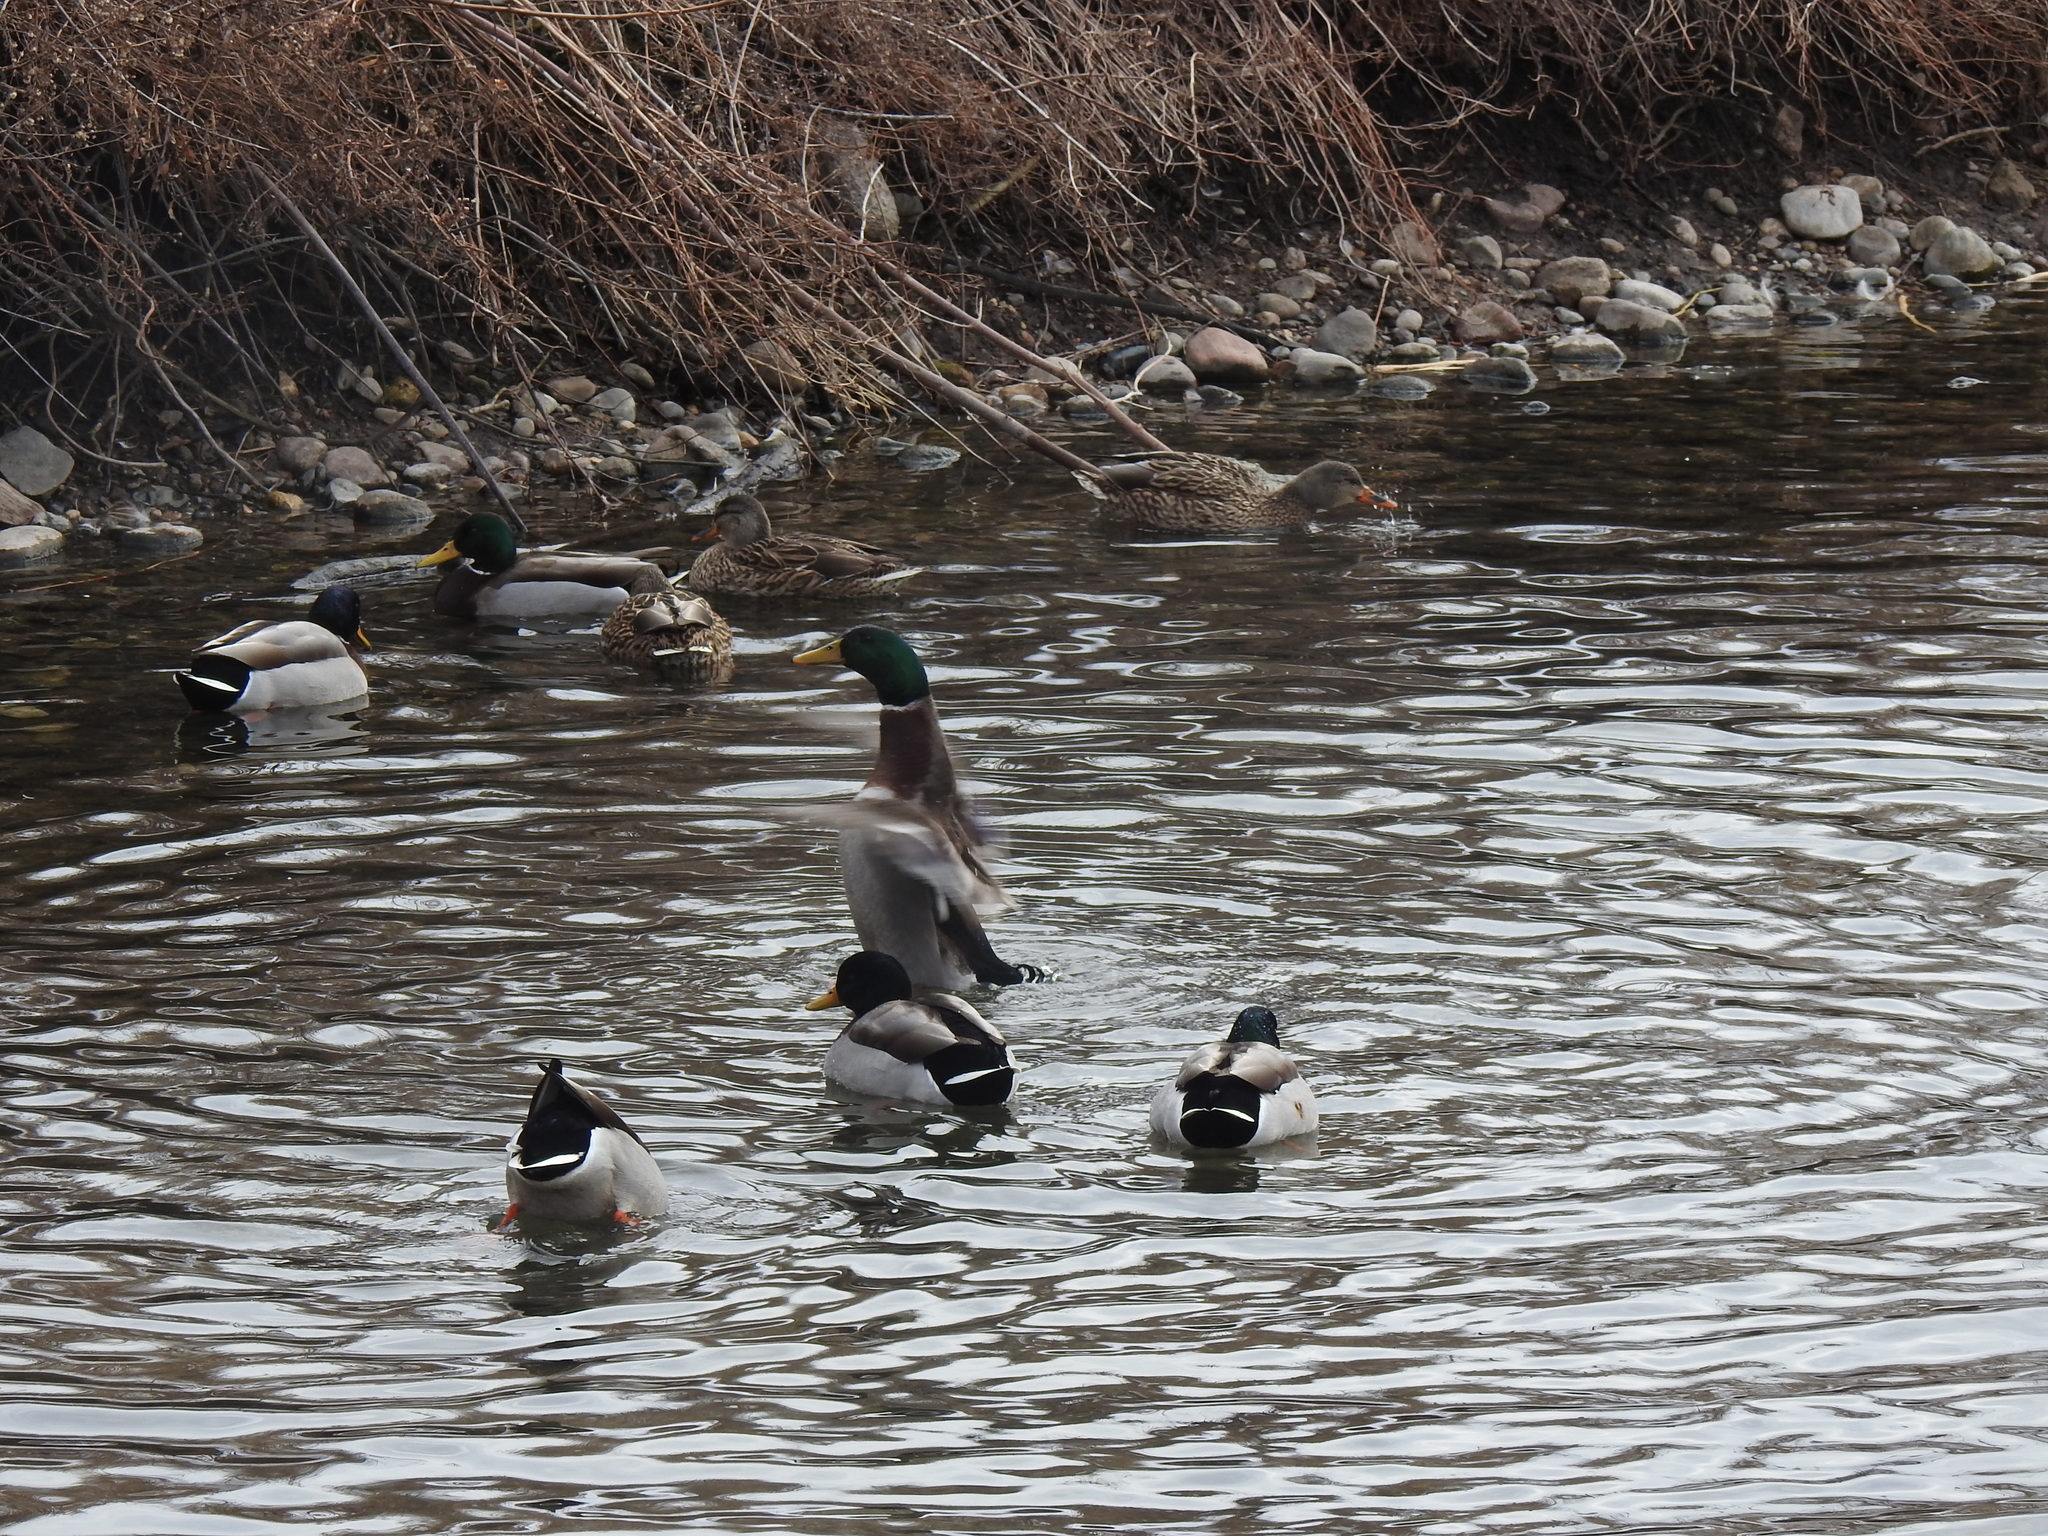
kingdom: Animalia
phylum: Chordata
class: Aves
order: Anseriformes
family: Anatidae
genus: Anas
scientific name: Anas platyrhynchos
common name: Mallard
